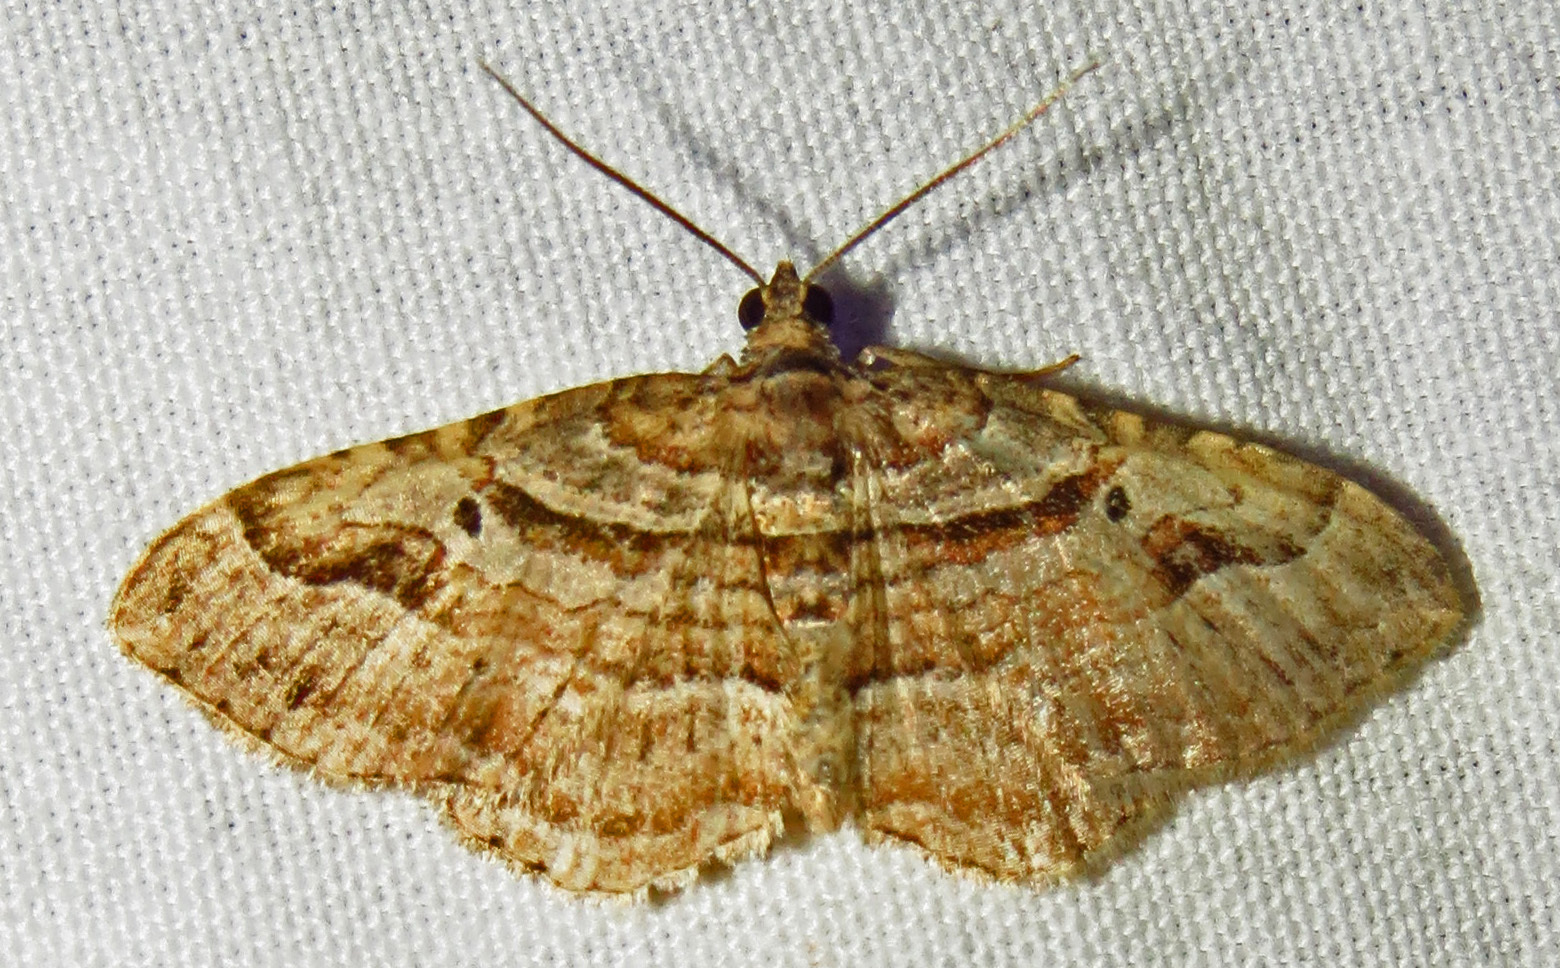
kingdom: Animalia
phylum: Arthropoda
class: Insecta
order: Lepidoptera
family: Geometridae
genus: Costaconvexa
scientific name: Costaconvexa centrostrigaria
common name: Bent-line carpet
